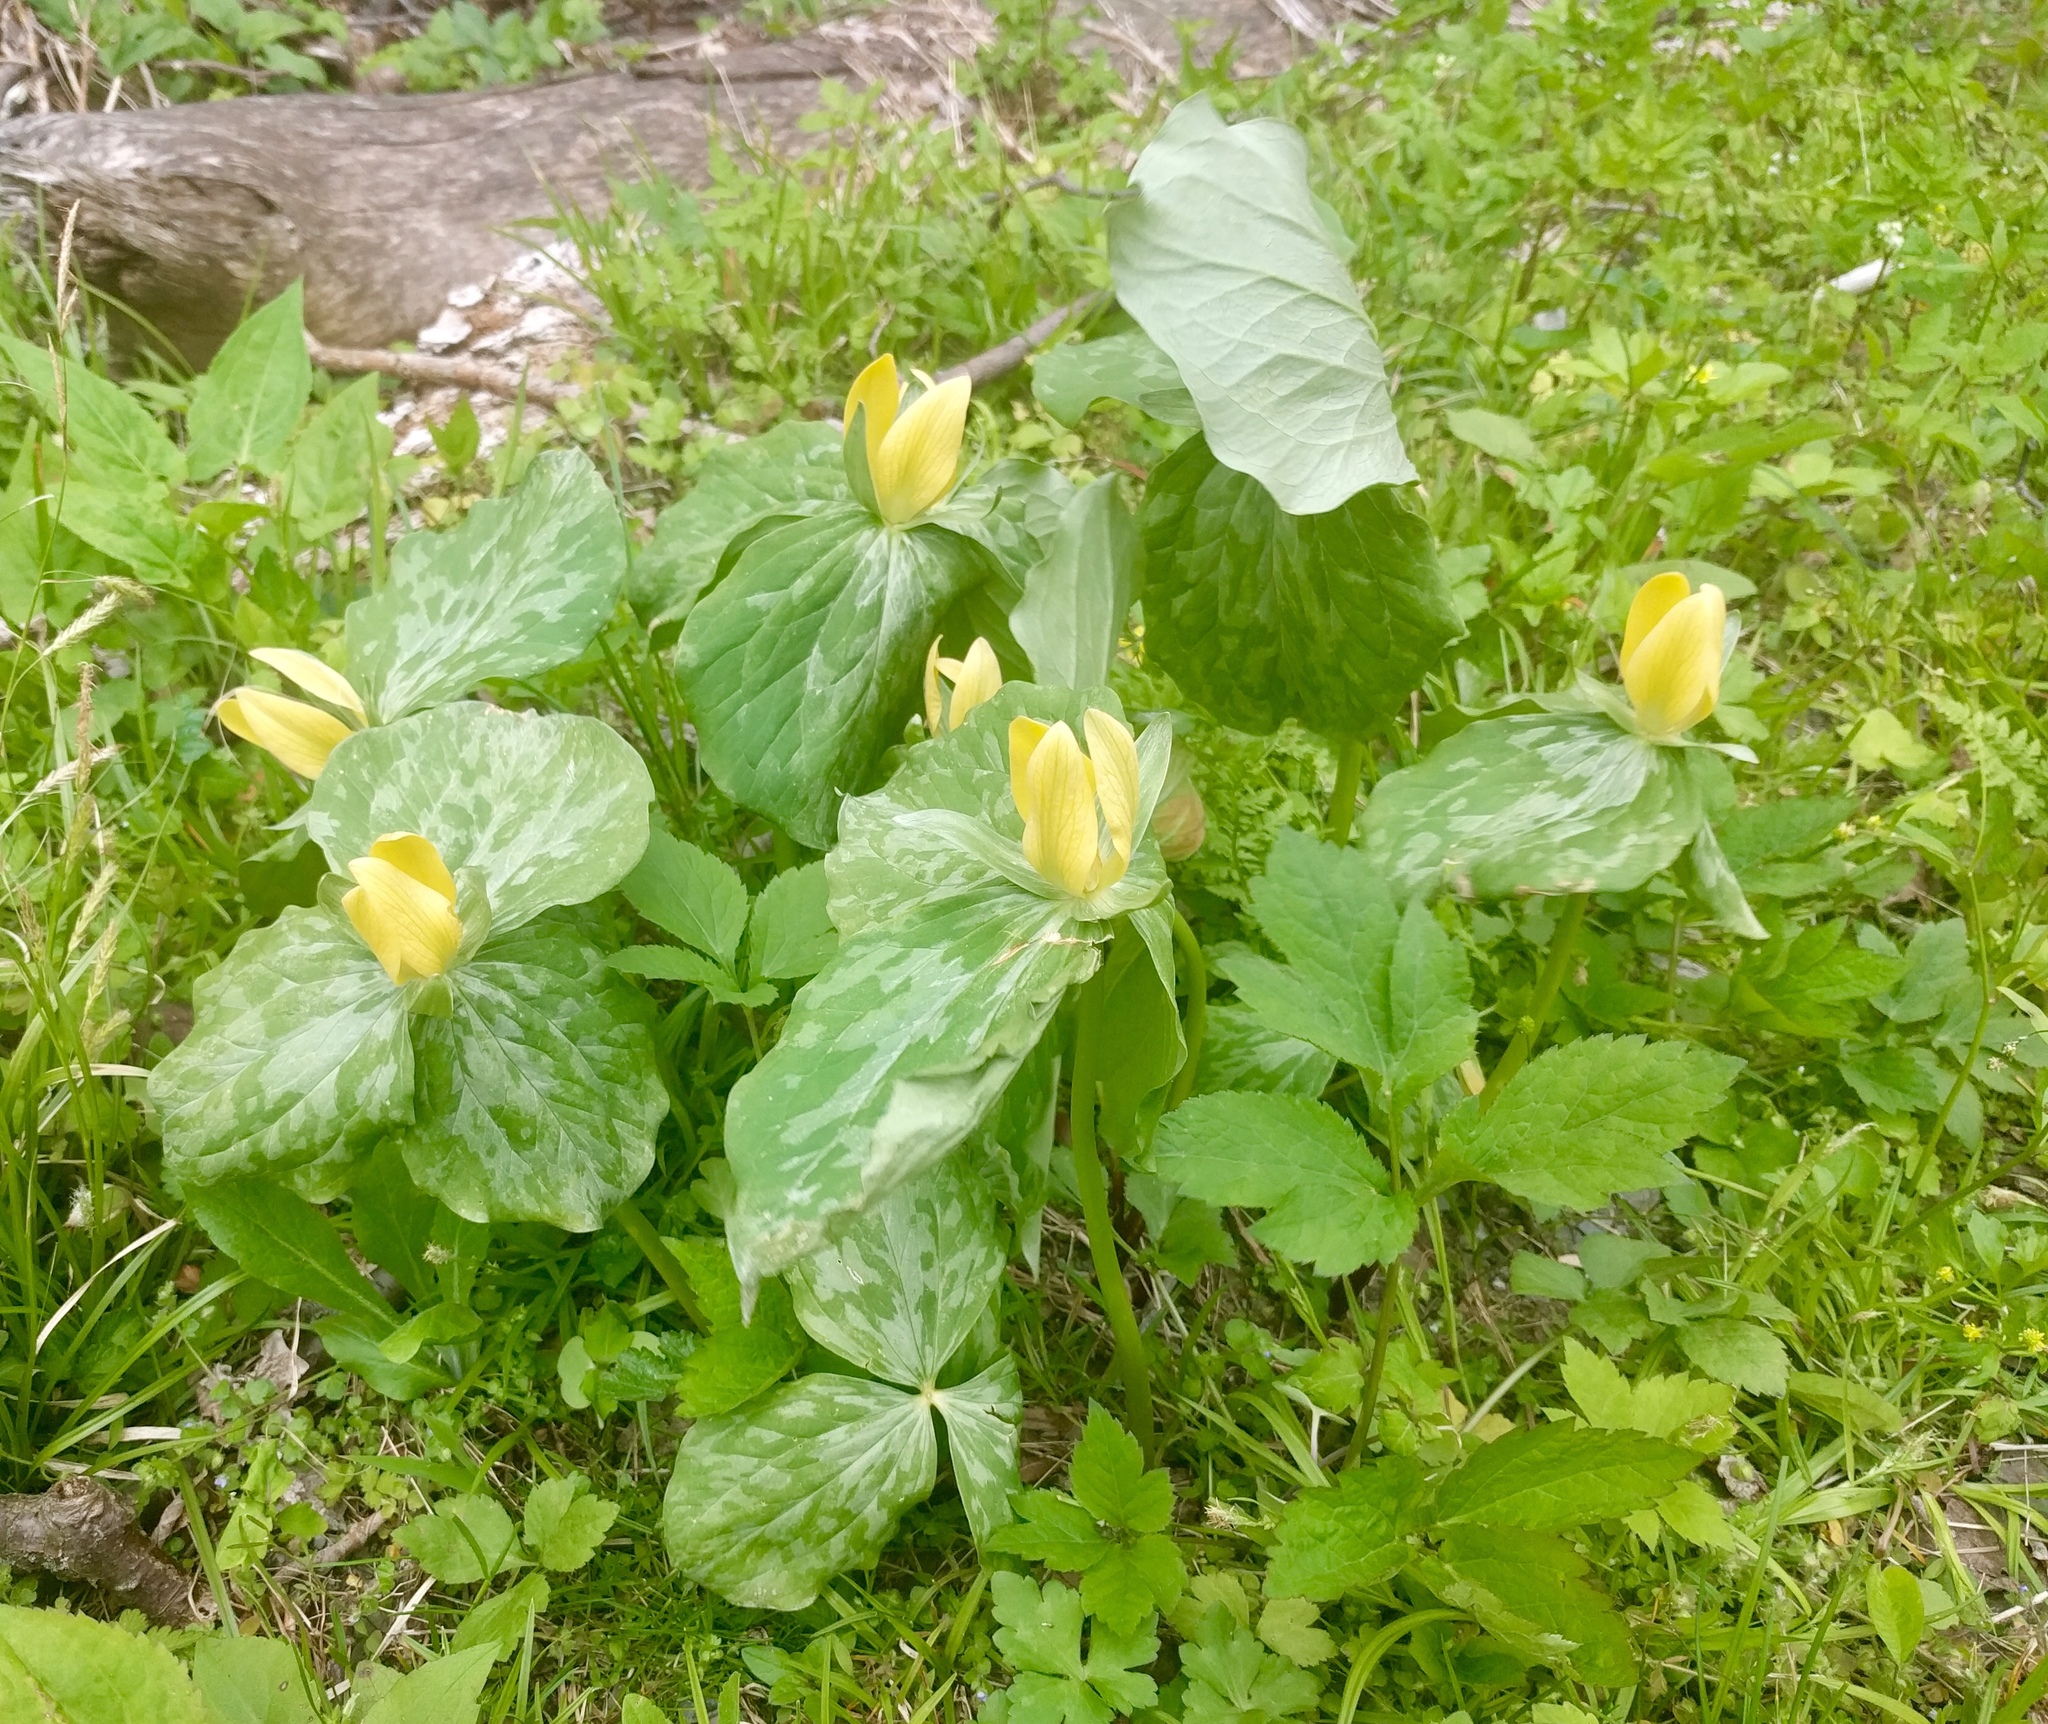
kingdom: Plantae
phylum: Tracheophyta
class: Liliopsida
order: Liliales
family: Melanthiaceae
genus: Trillium
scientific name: Trillium luteum
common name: Wax trillium
